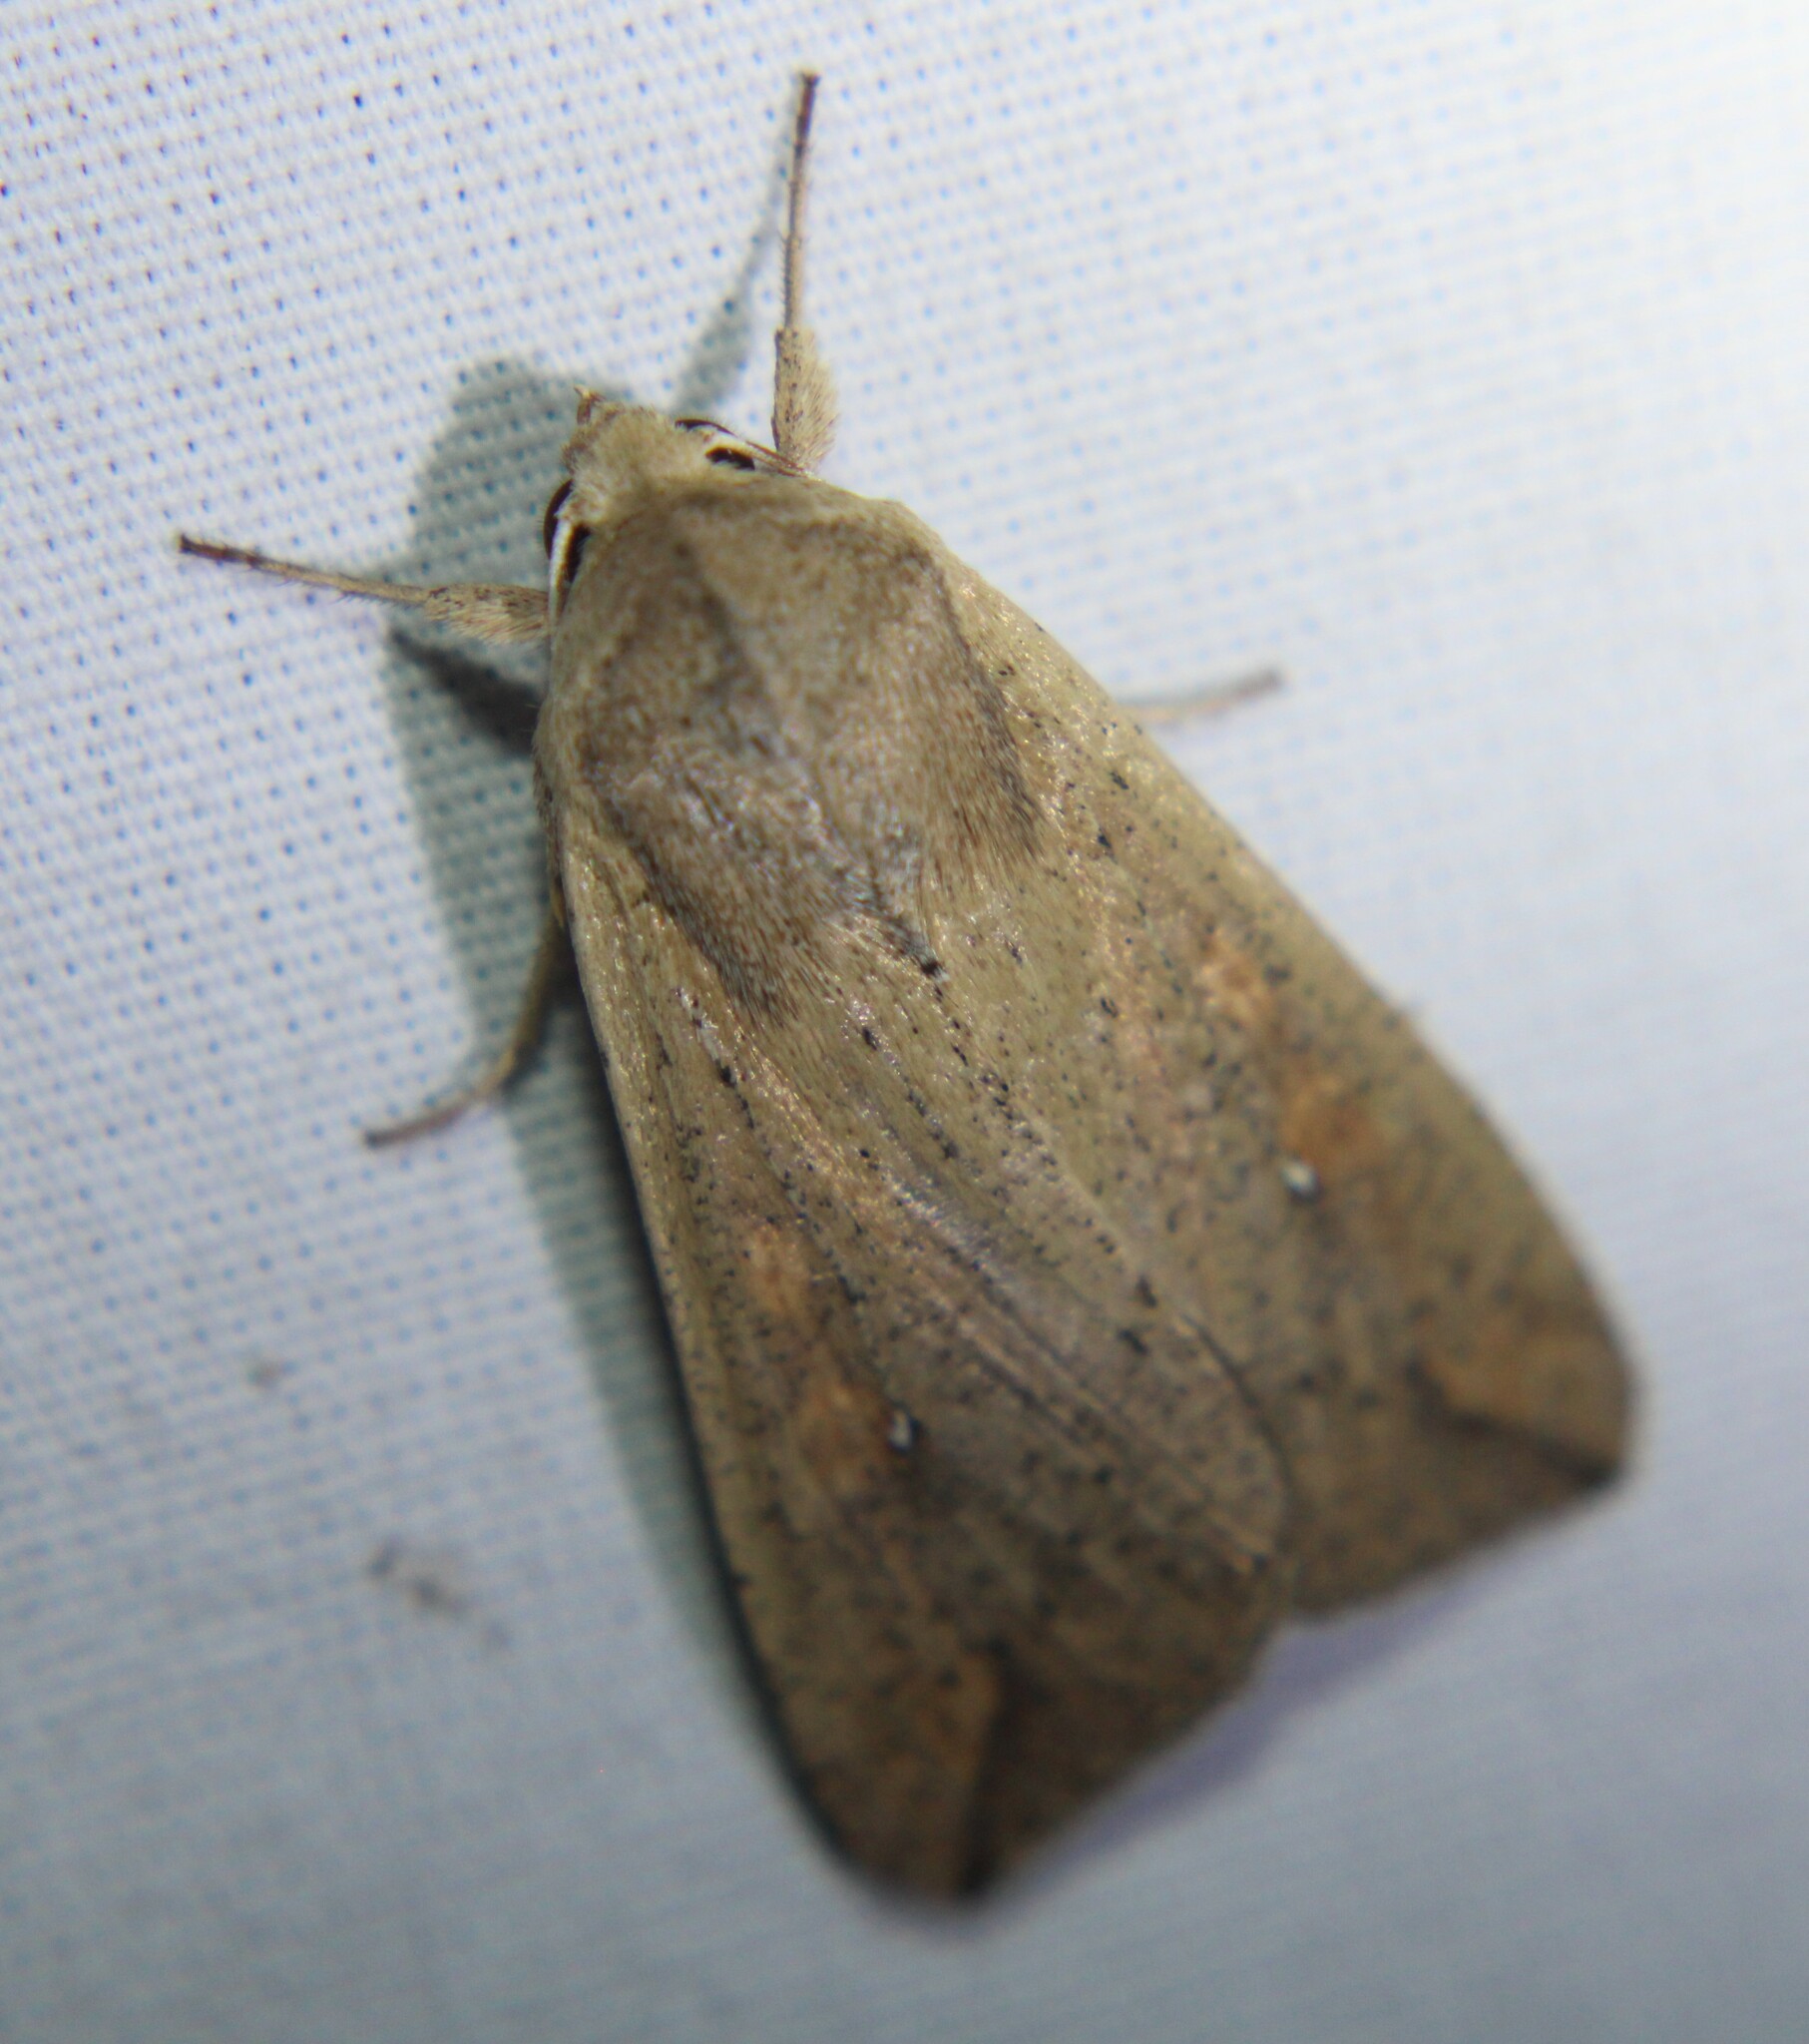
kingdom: Animalia
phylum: Arthropoda
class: Insecta
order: Lepidoptera
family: Noctuidae
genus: Mythimna
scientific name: Mythimna unipuncta
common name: White-speck
